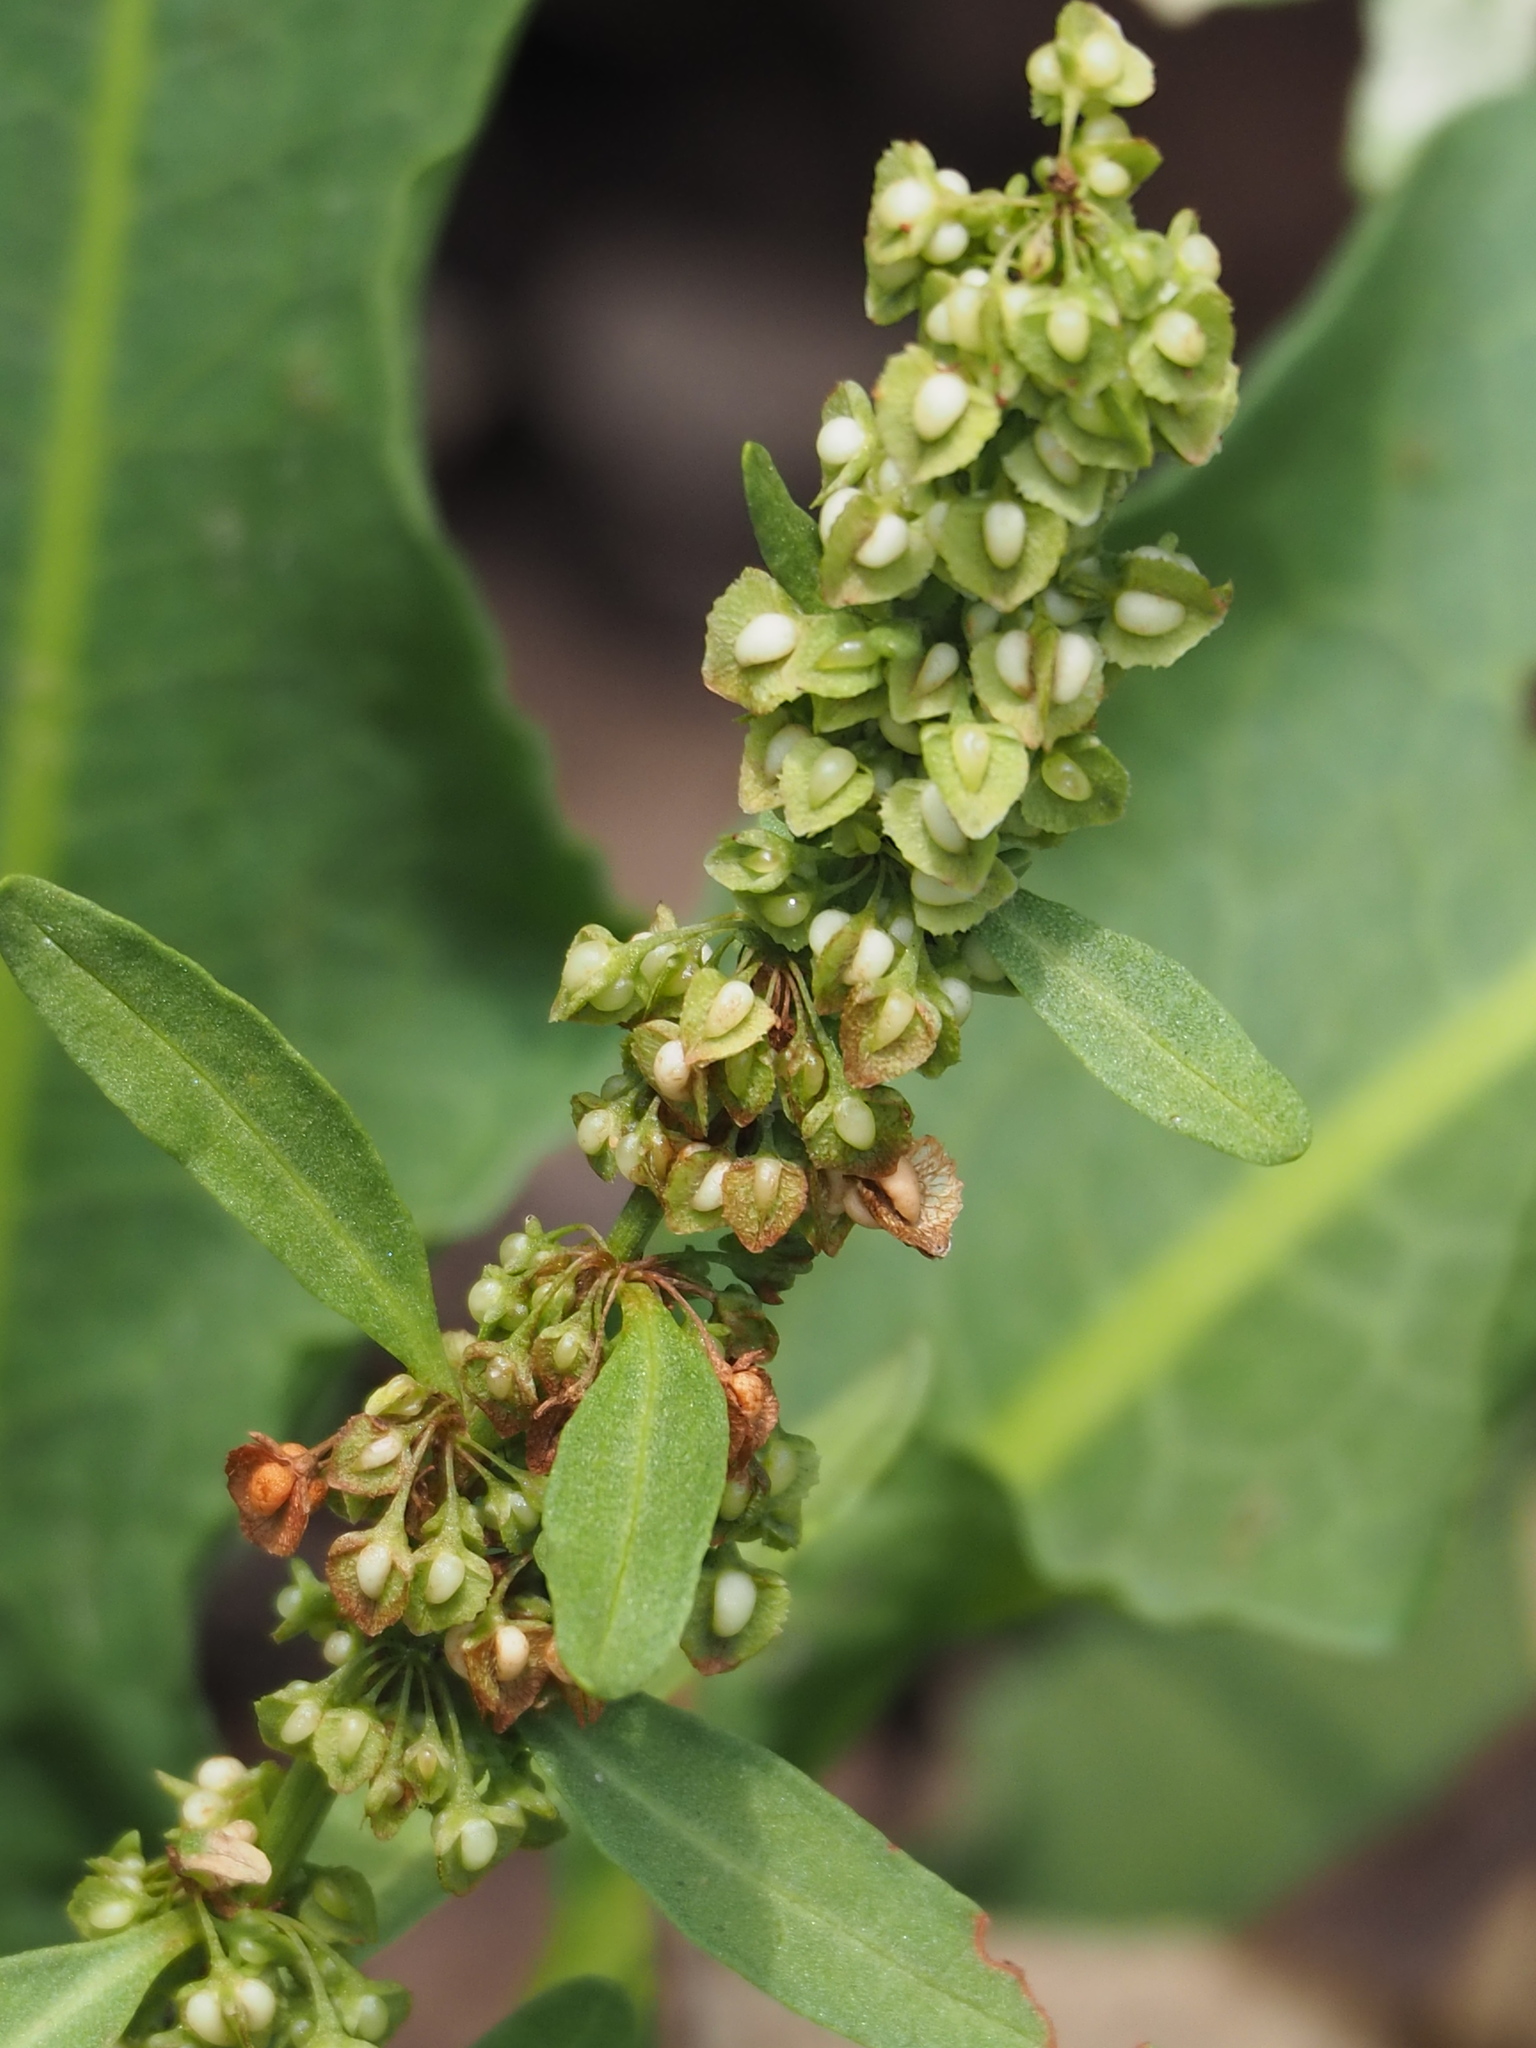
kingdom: Plantae
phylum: Tracheophyta
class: Magnoliopsida
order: Caryophyllales
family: Polygonaceae
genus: Rumex
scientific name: Rumex japonicus
